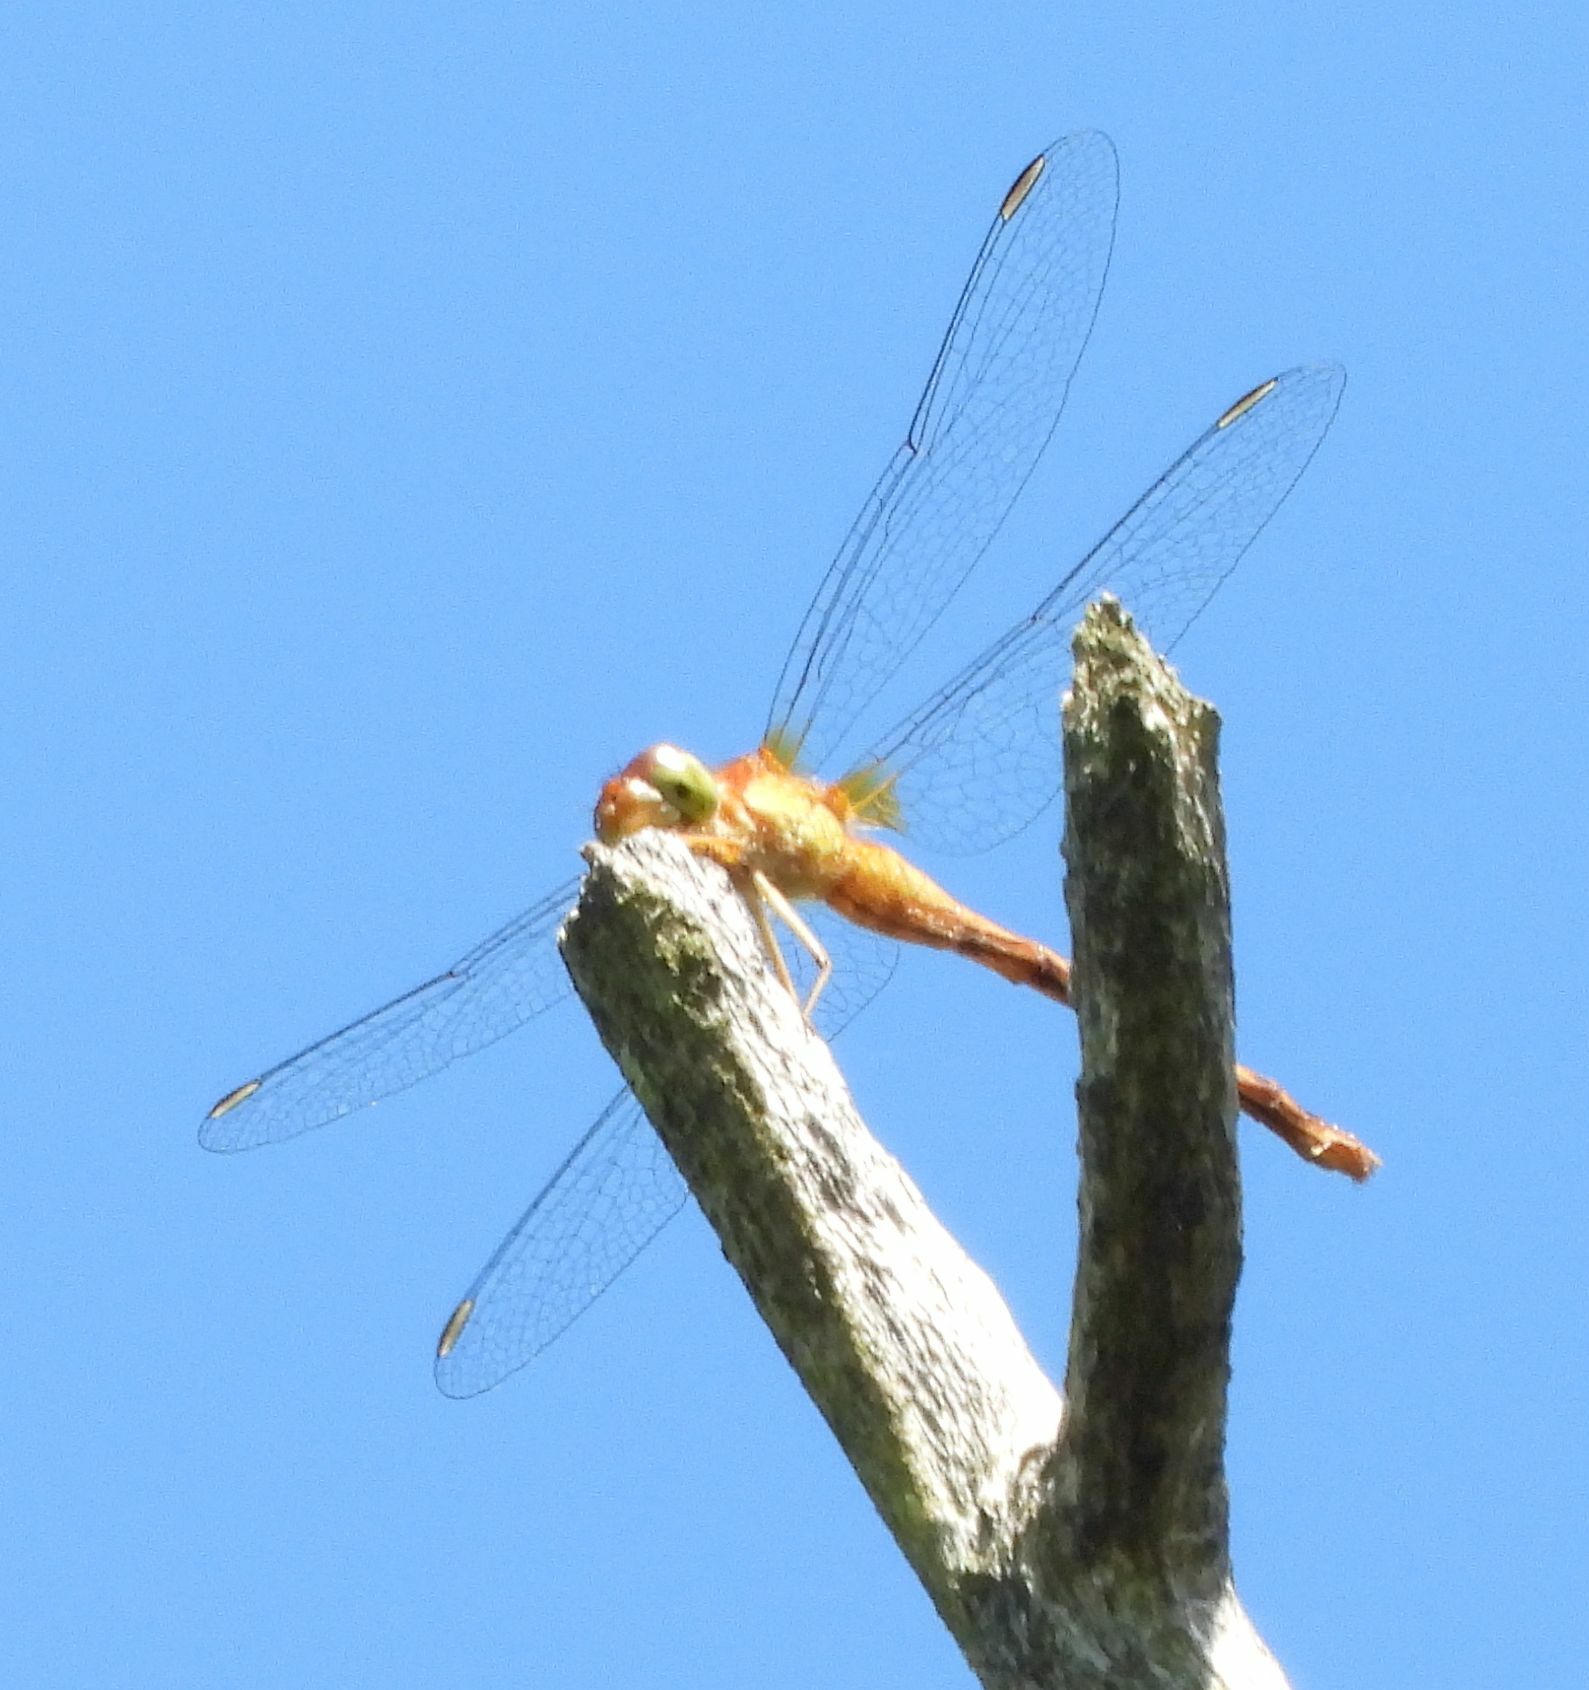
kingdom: Animalia
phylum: Arthropoda
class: Insecta
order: Odonata
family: Libellulidae
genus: Sympetrum
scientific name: Sympetrum vicinum
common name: Autumn meadowhawk
